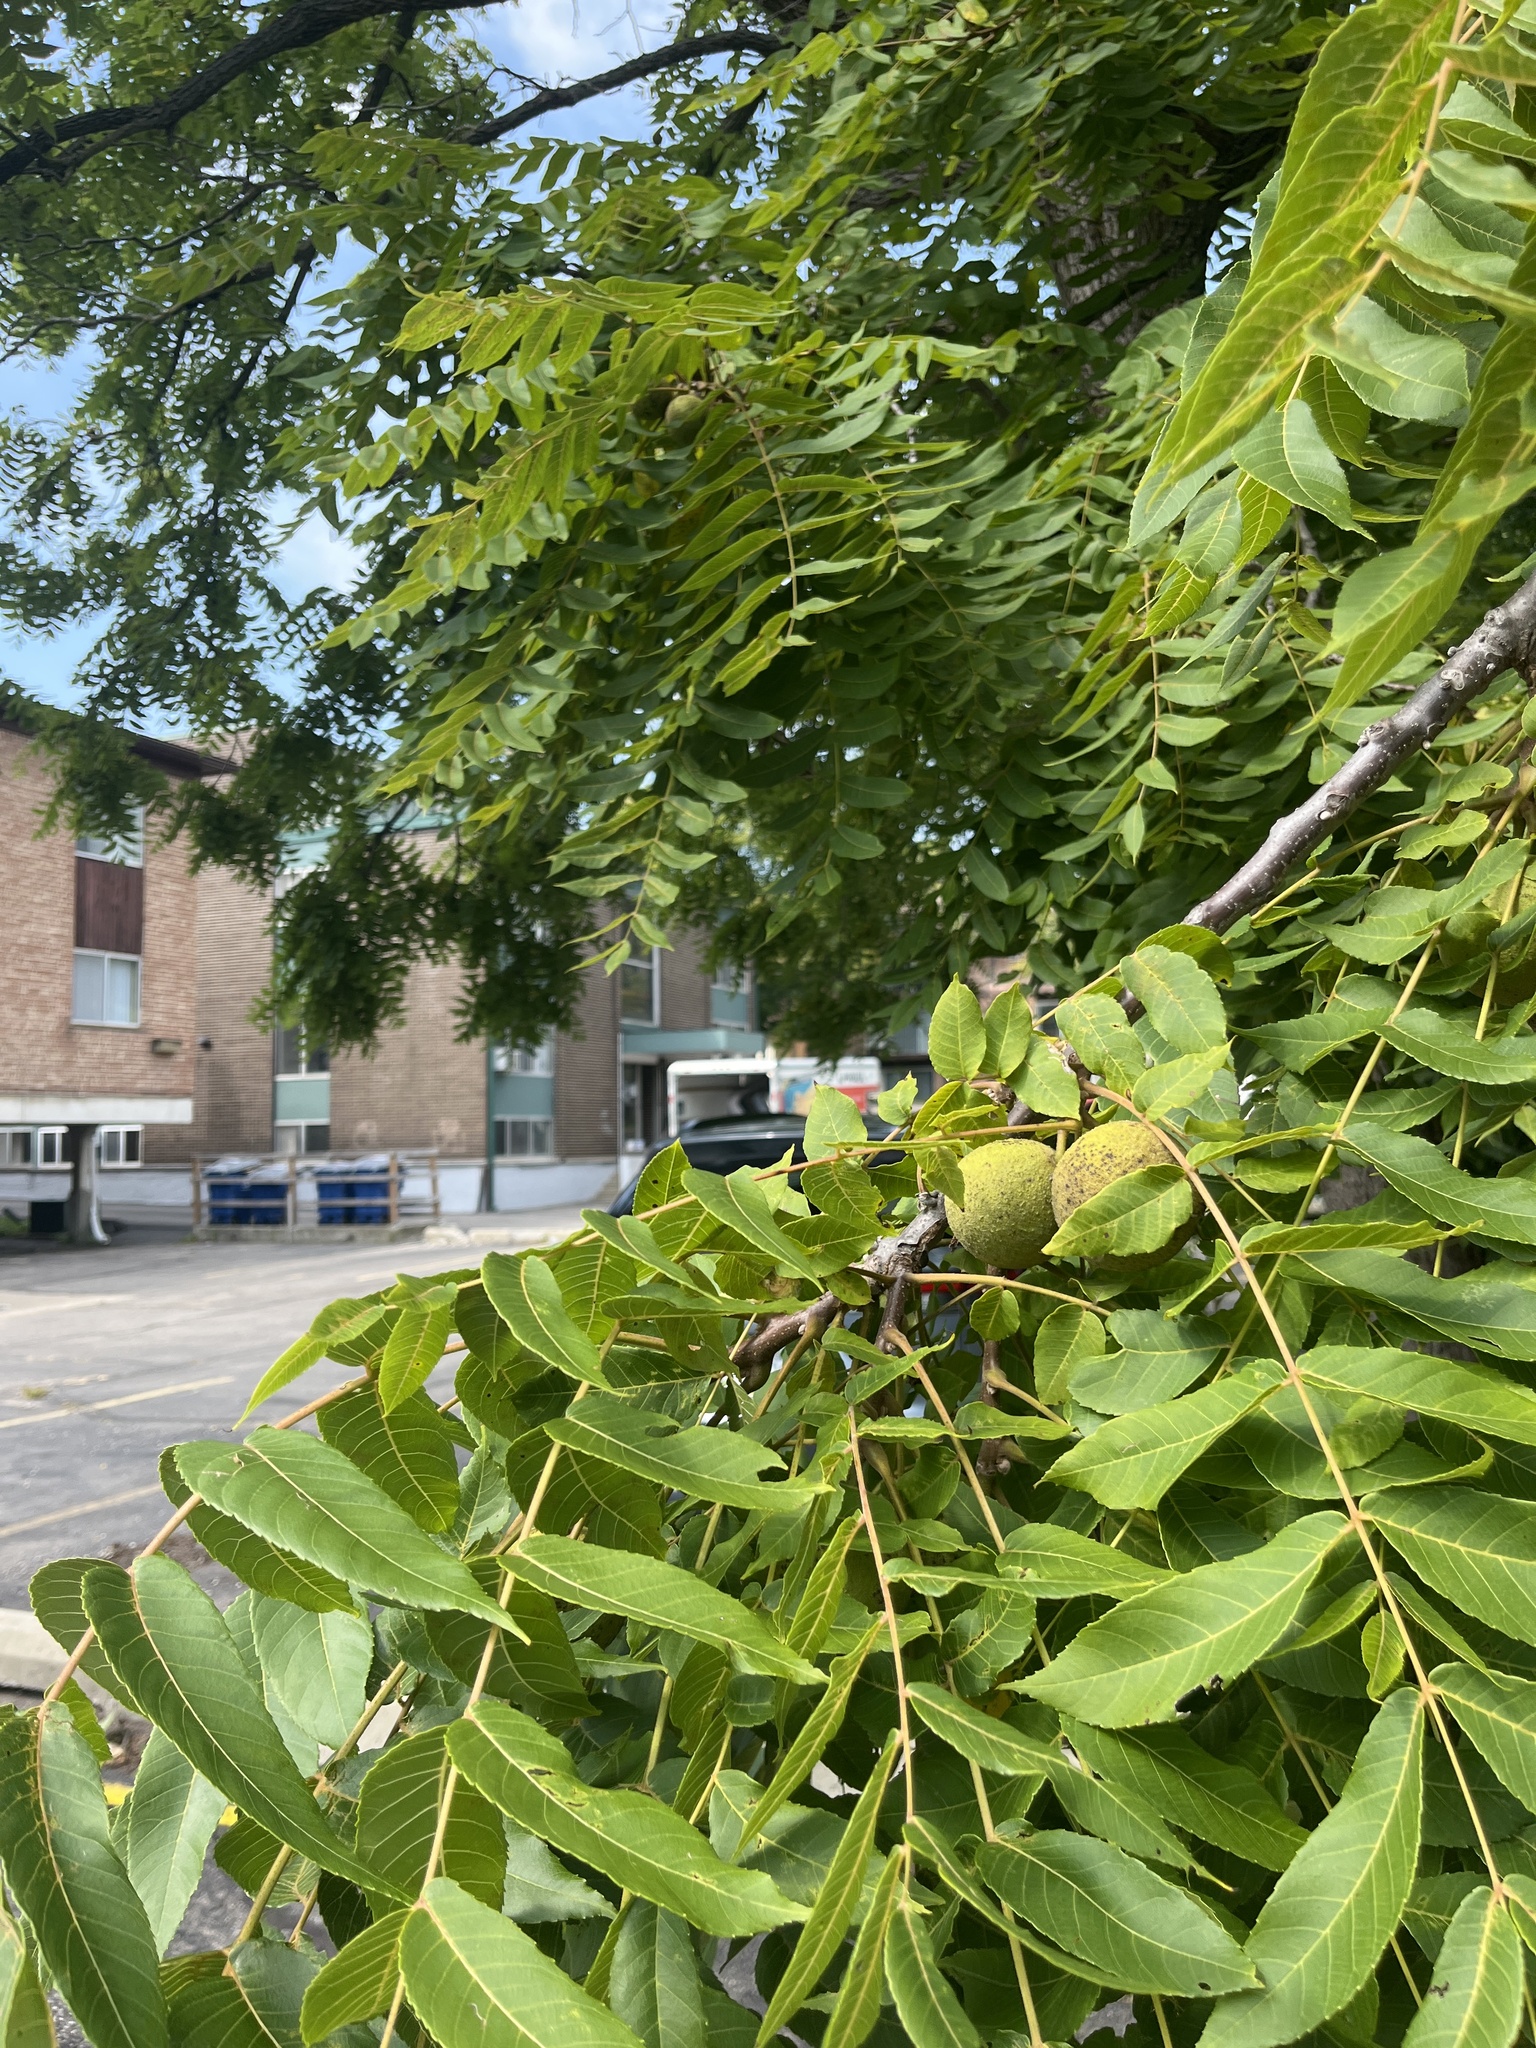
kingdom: Plantae
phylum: Tracheophyta
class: Magnoliopsida
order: Fagales
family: Juglandaceae
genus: Juglans
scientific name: Juglans nigra
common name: Black walnut
